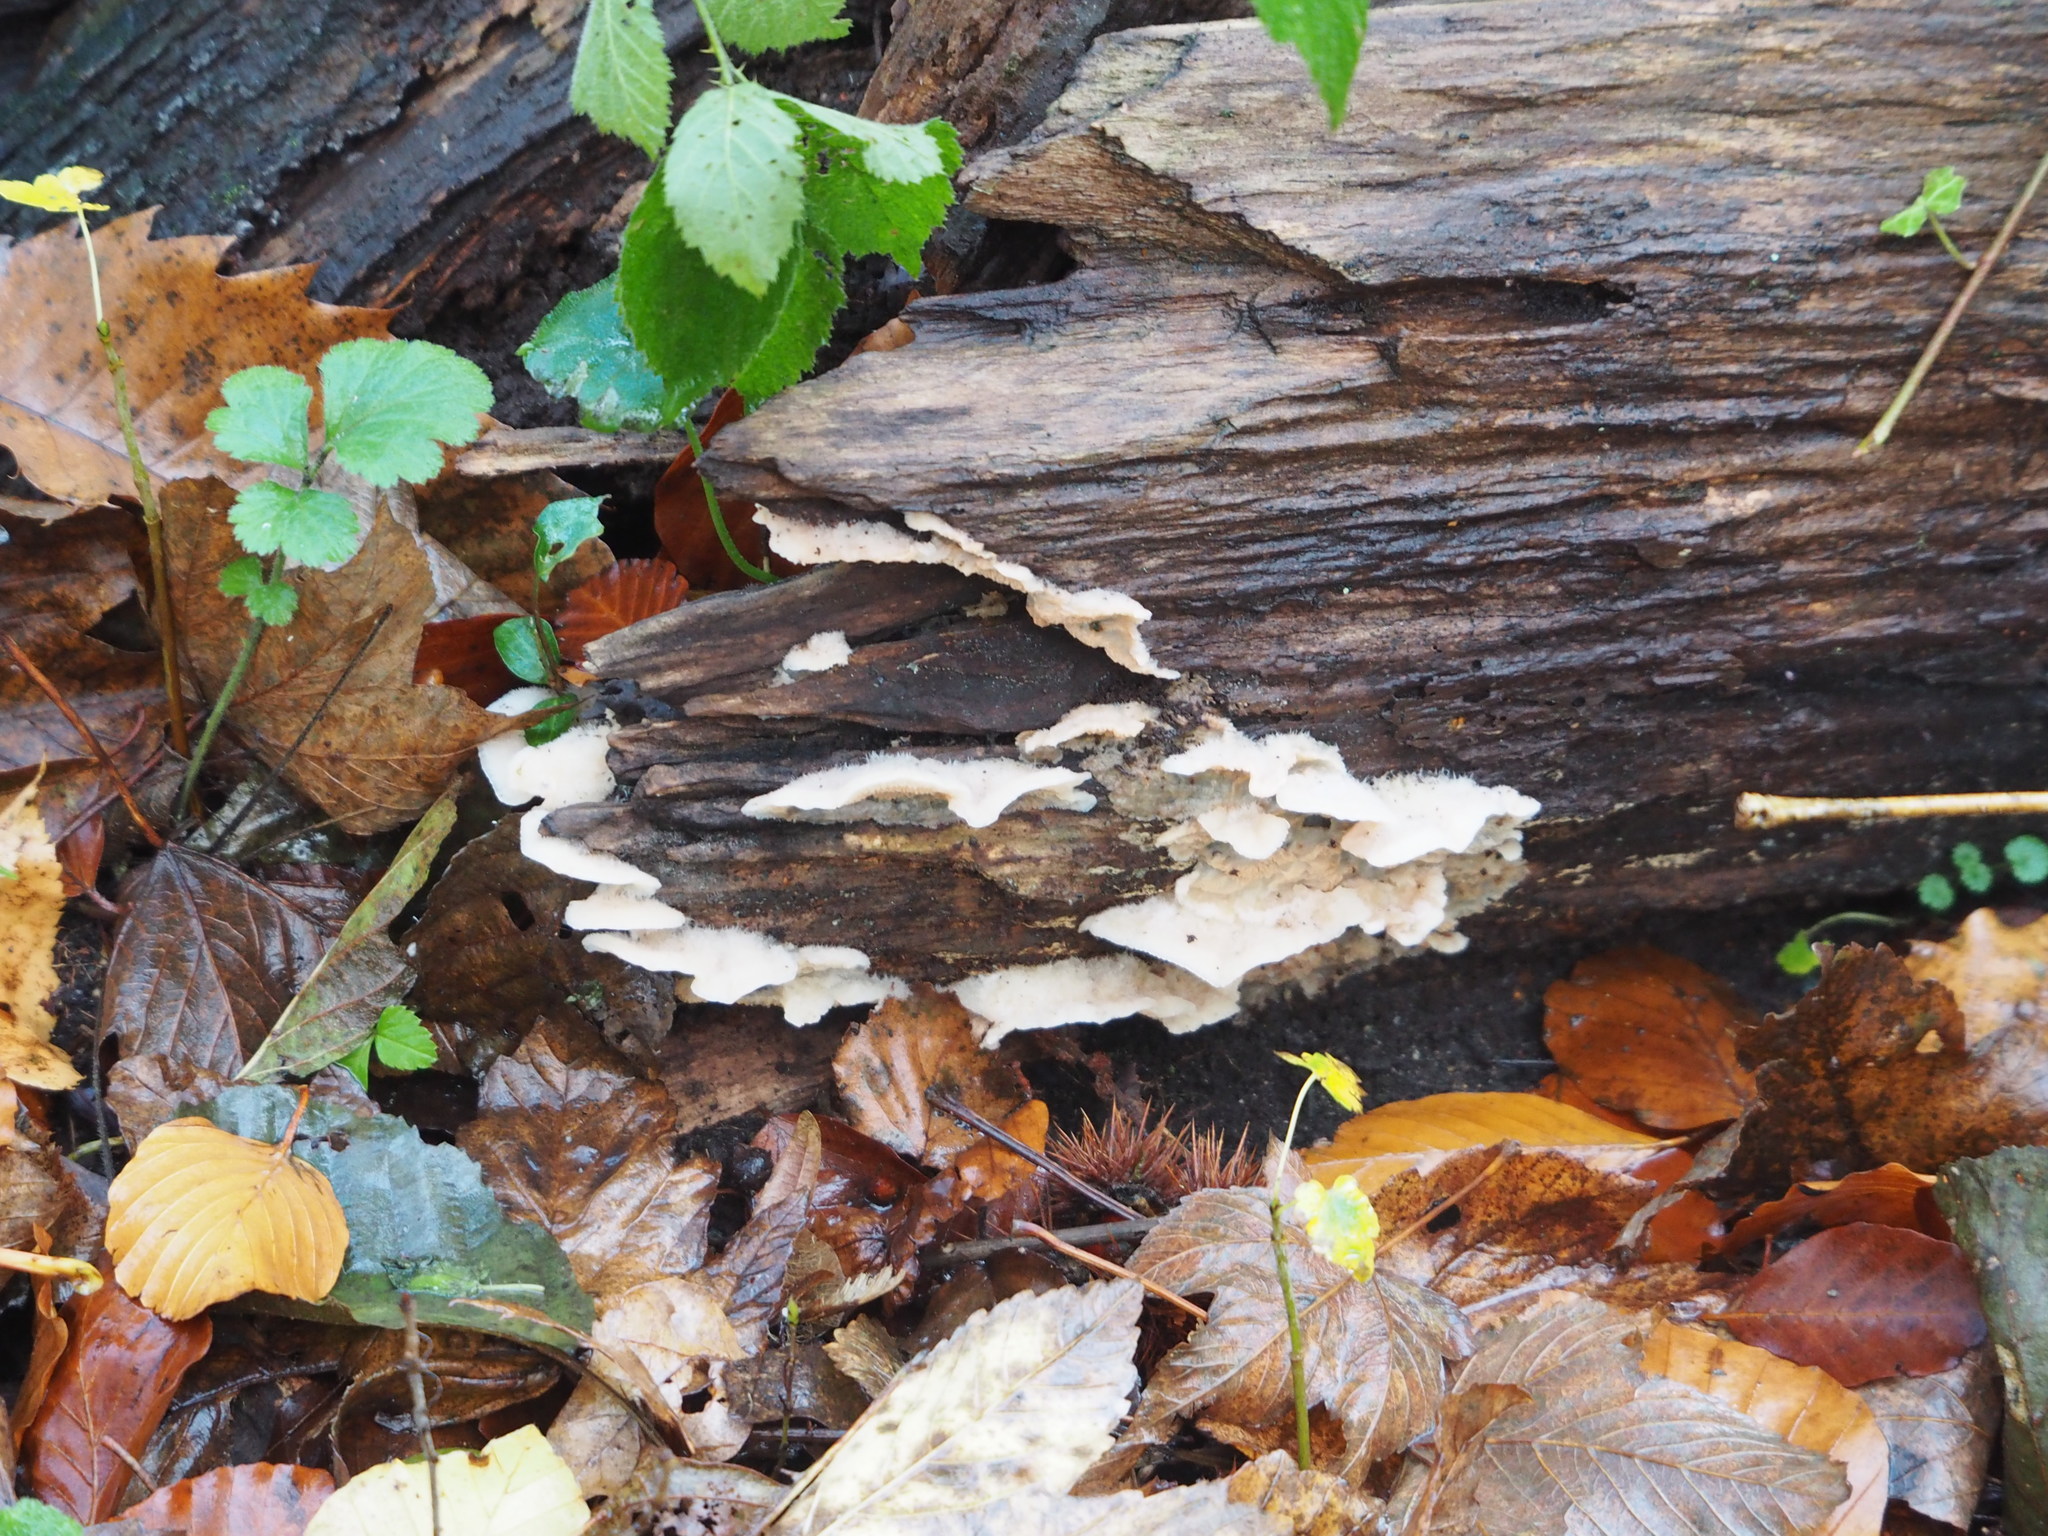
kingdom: Fungi
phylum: Basidiomycota
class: Agaricomycetes
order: Polyporales
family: Meruliaceae
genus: Phlebia
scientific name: Phlebia tremellosa
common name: Jelly rot
